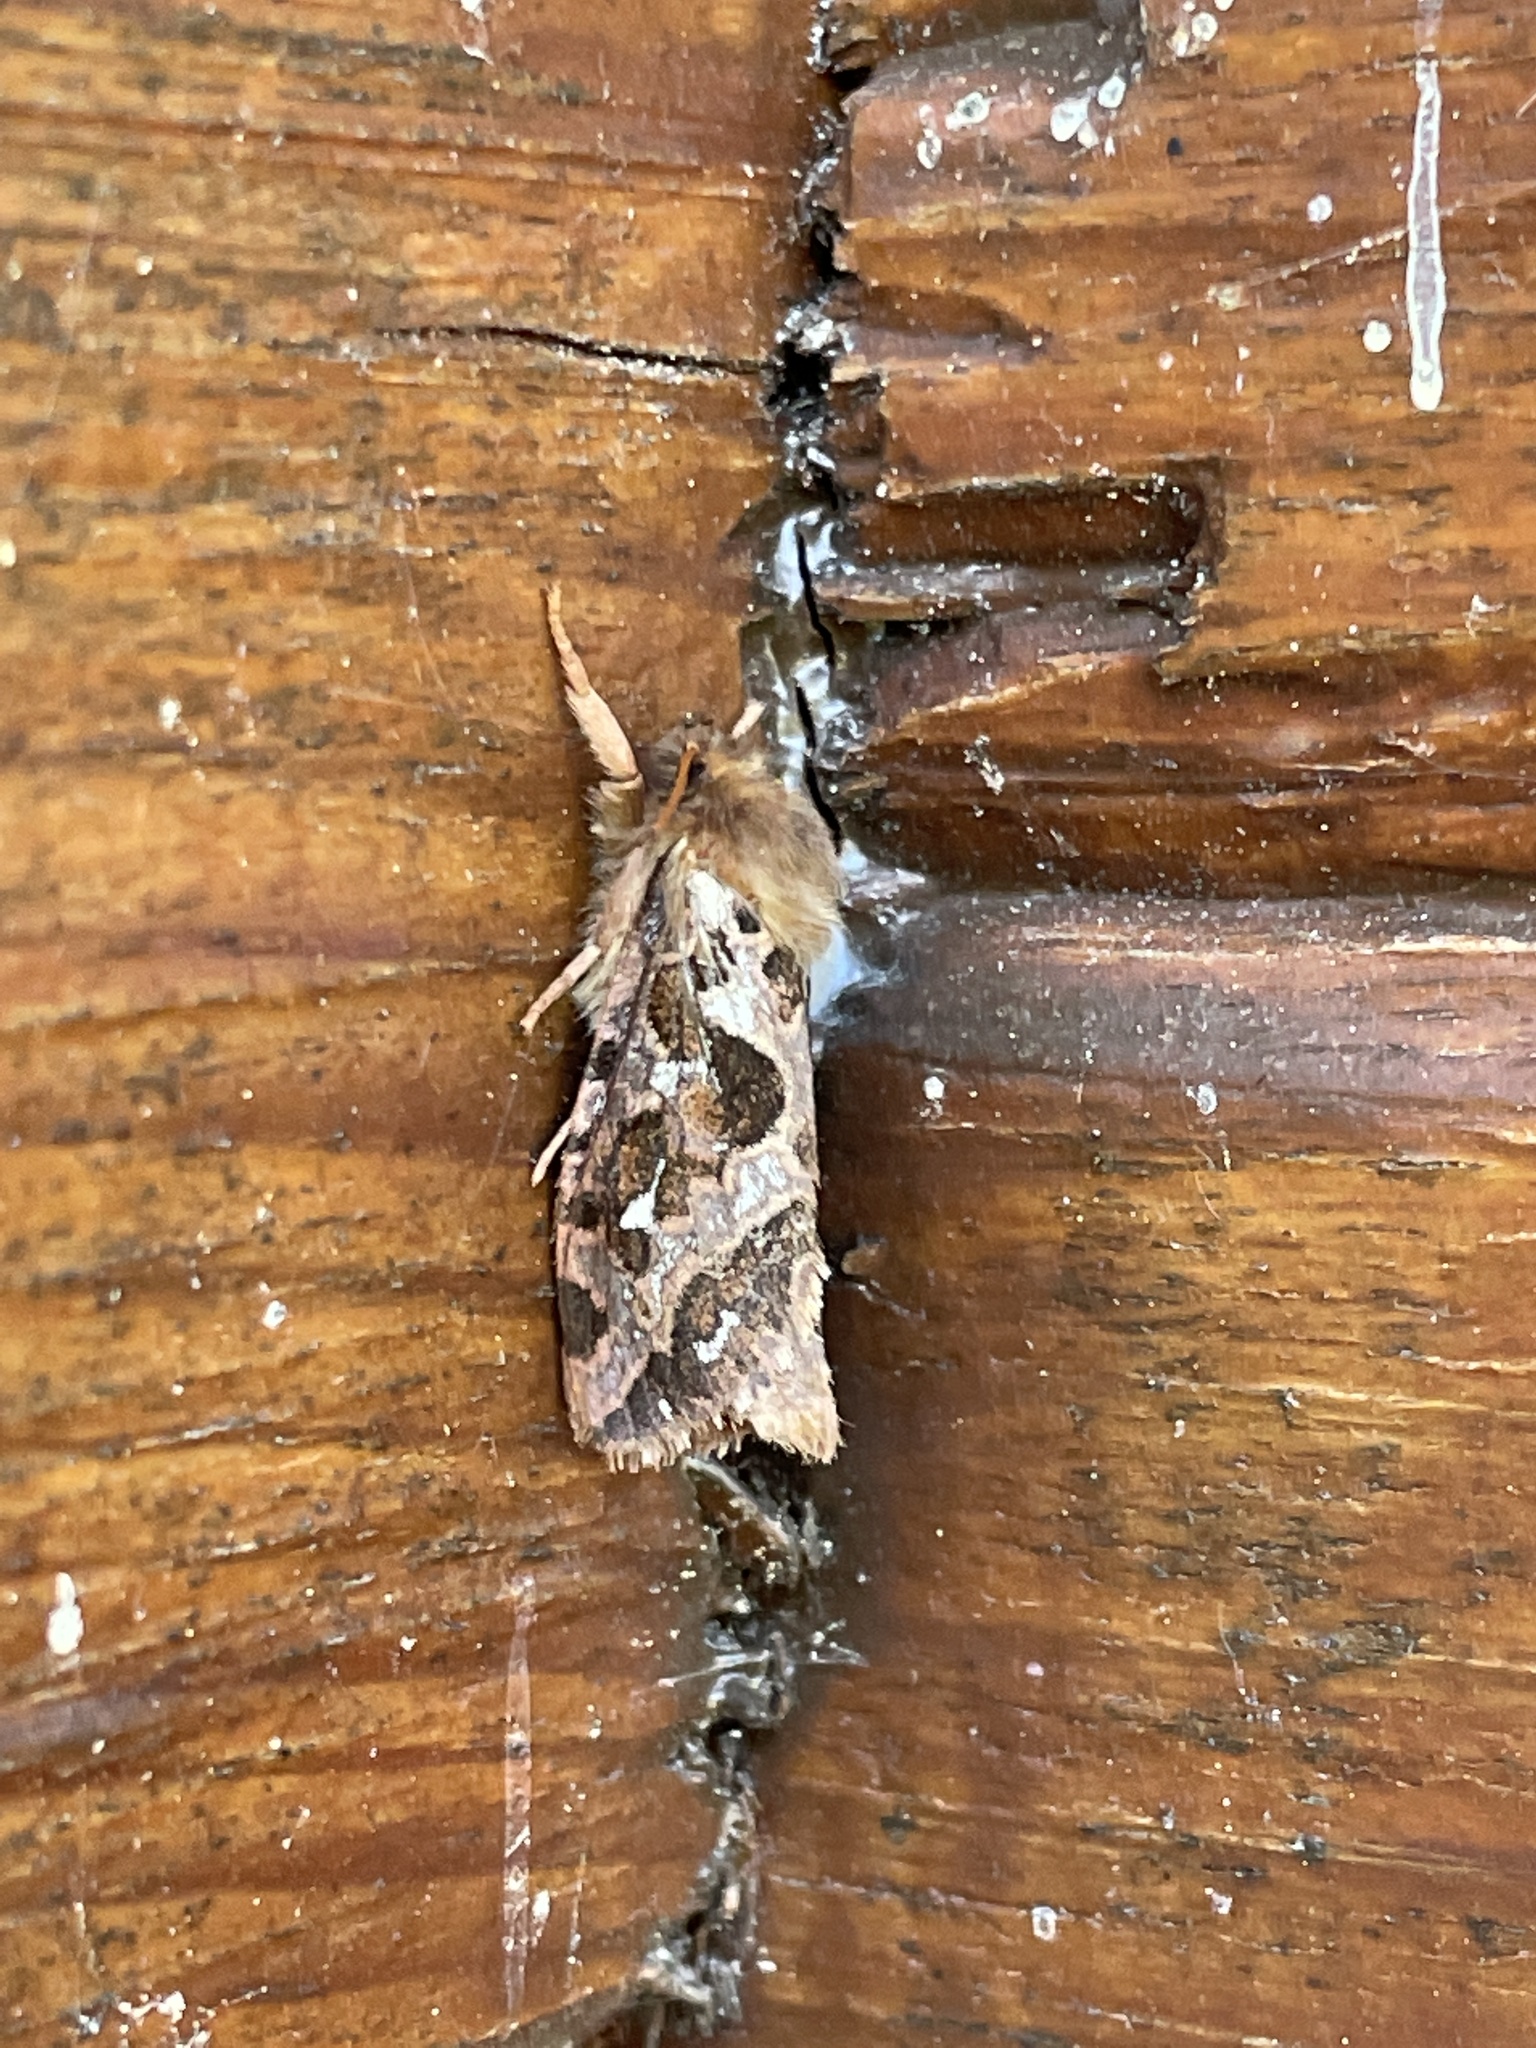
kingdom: Animalia
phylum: Arthropoda
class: Insecta
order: Lepidoptera
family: Hepialidae
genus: Korscheltellus
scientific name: Korscheltellus fusconebulosus
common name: Map-winged swift
